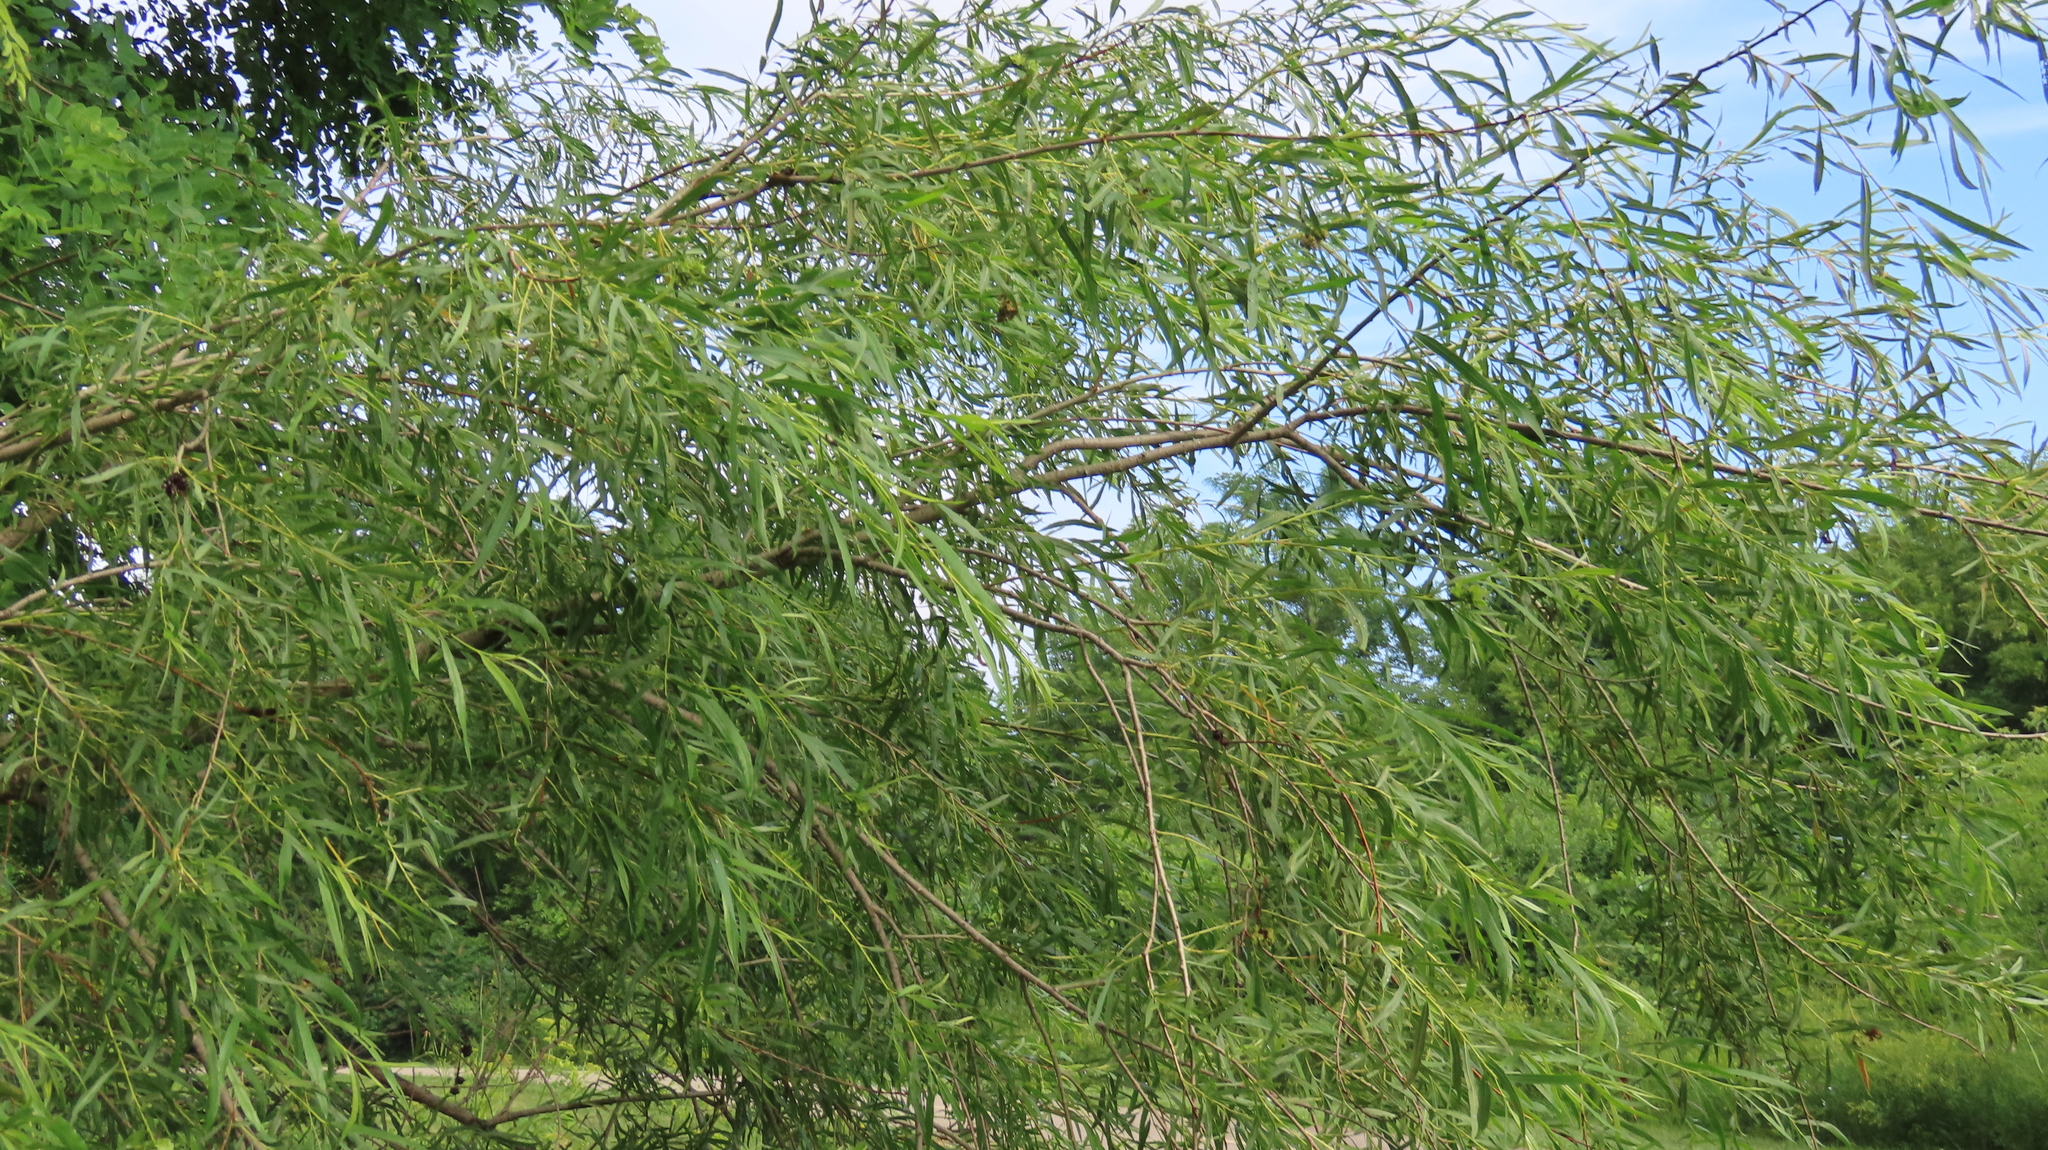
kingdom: Plantae
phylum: Tracheophyta
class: Magnoliopsida
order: Malpighiales
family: Salicaceae
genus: Salix
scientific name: Salix interior
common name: Sandbar willow
